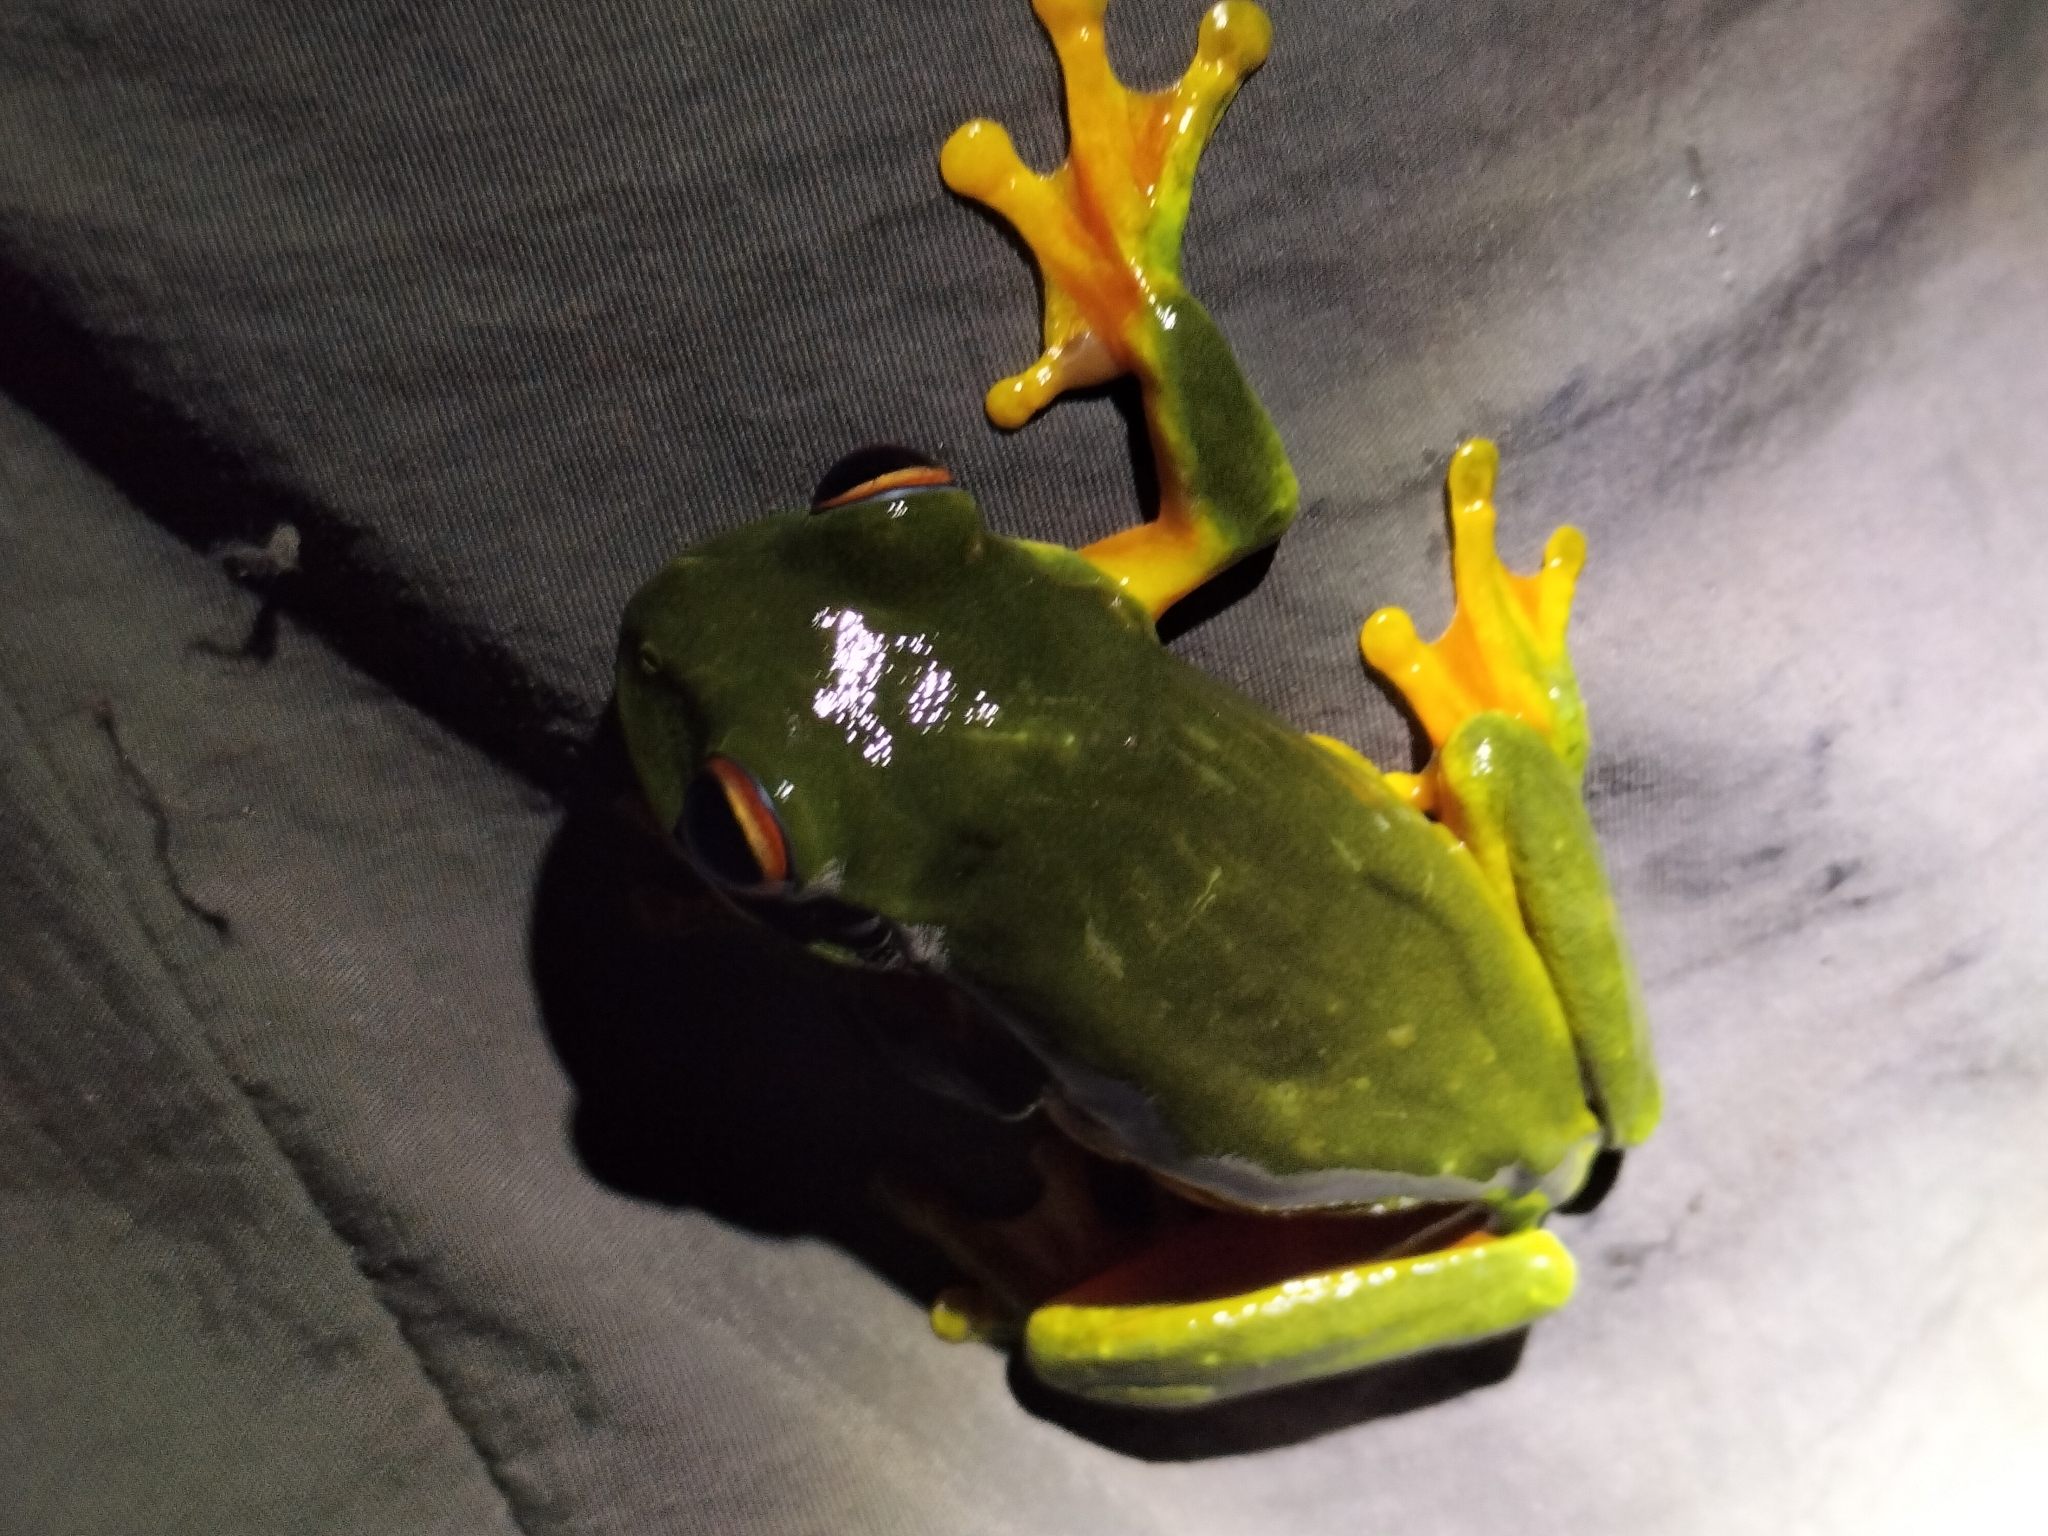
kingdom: Animalia
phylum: Chordata
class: Amphibia
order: Anura
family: Pelodryadidae
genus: Ranoidea
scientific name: Ranoidea xanthomera
